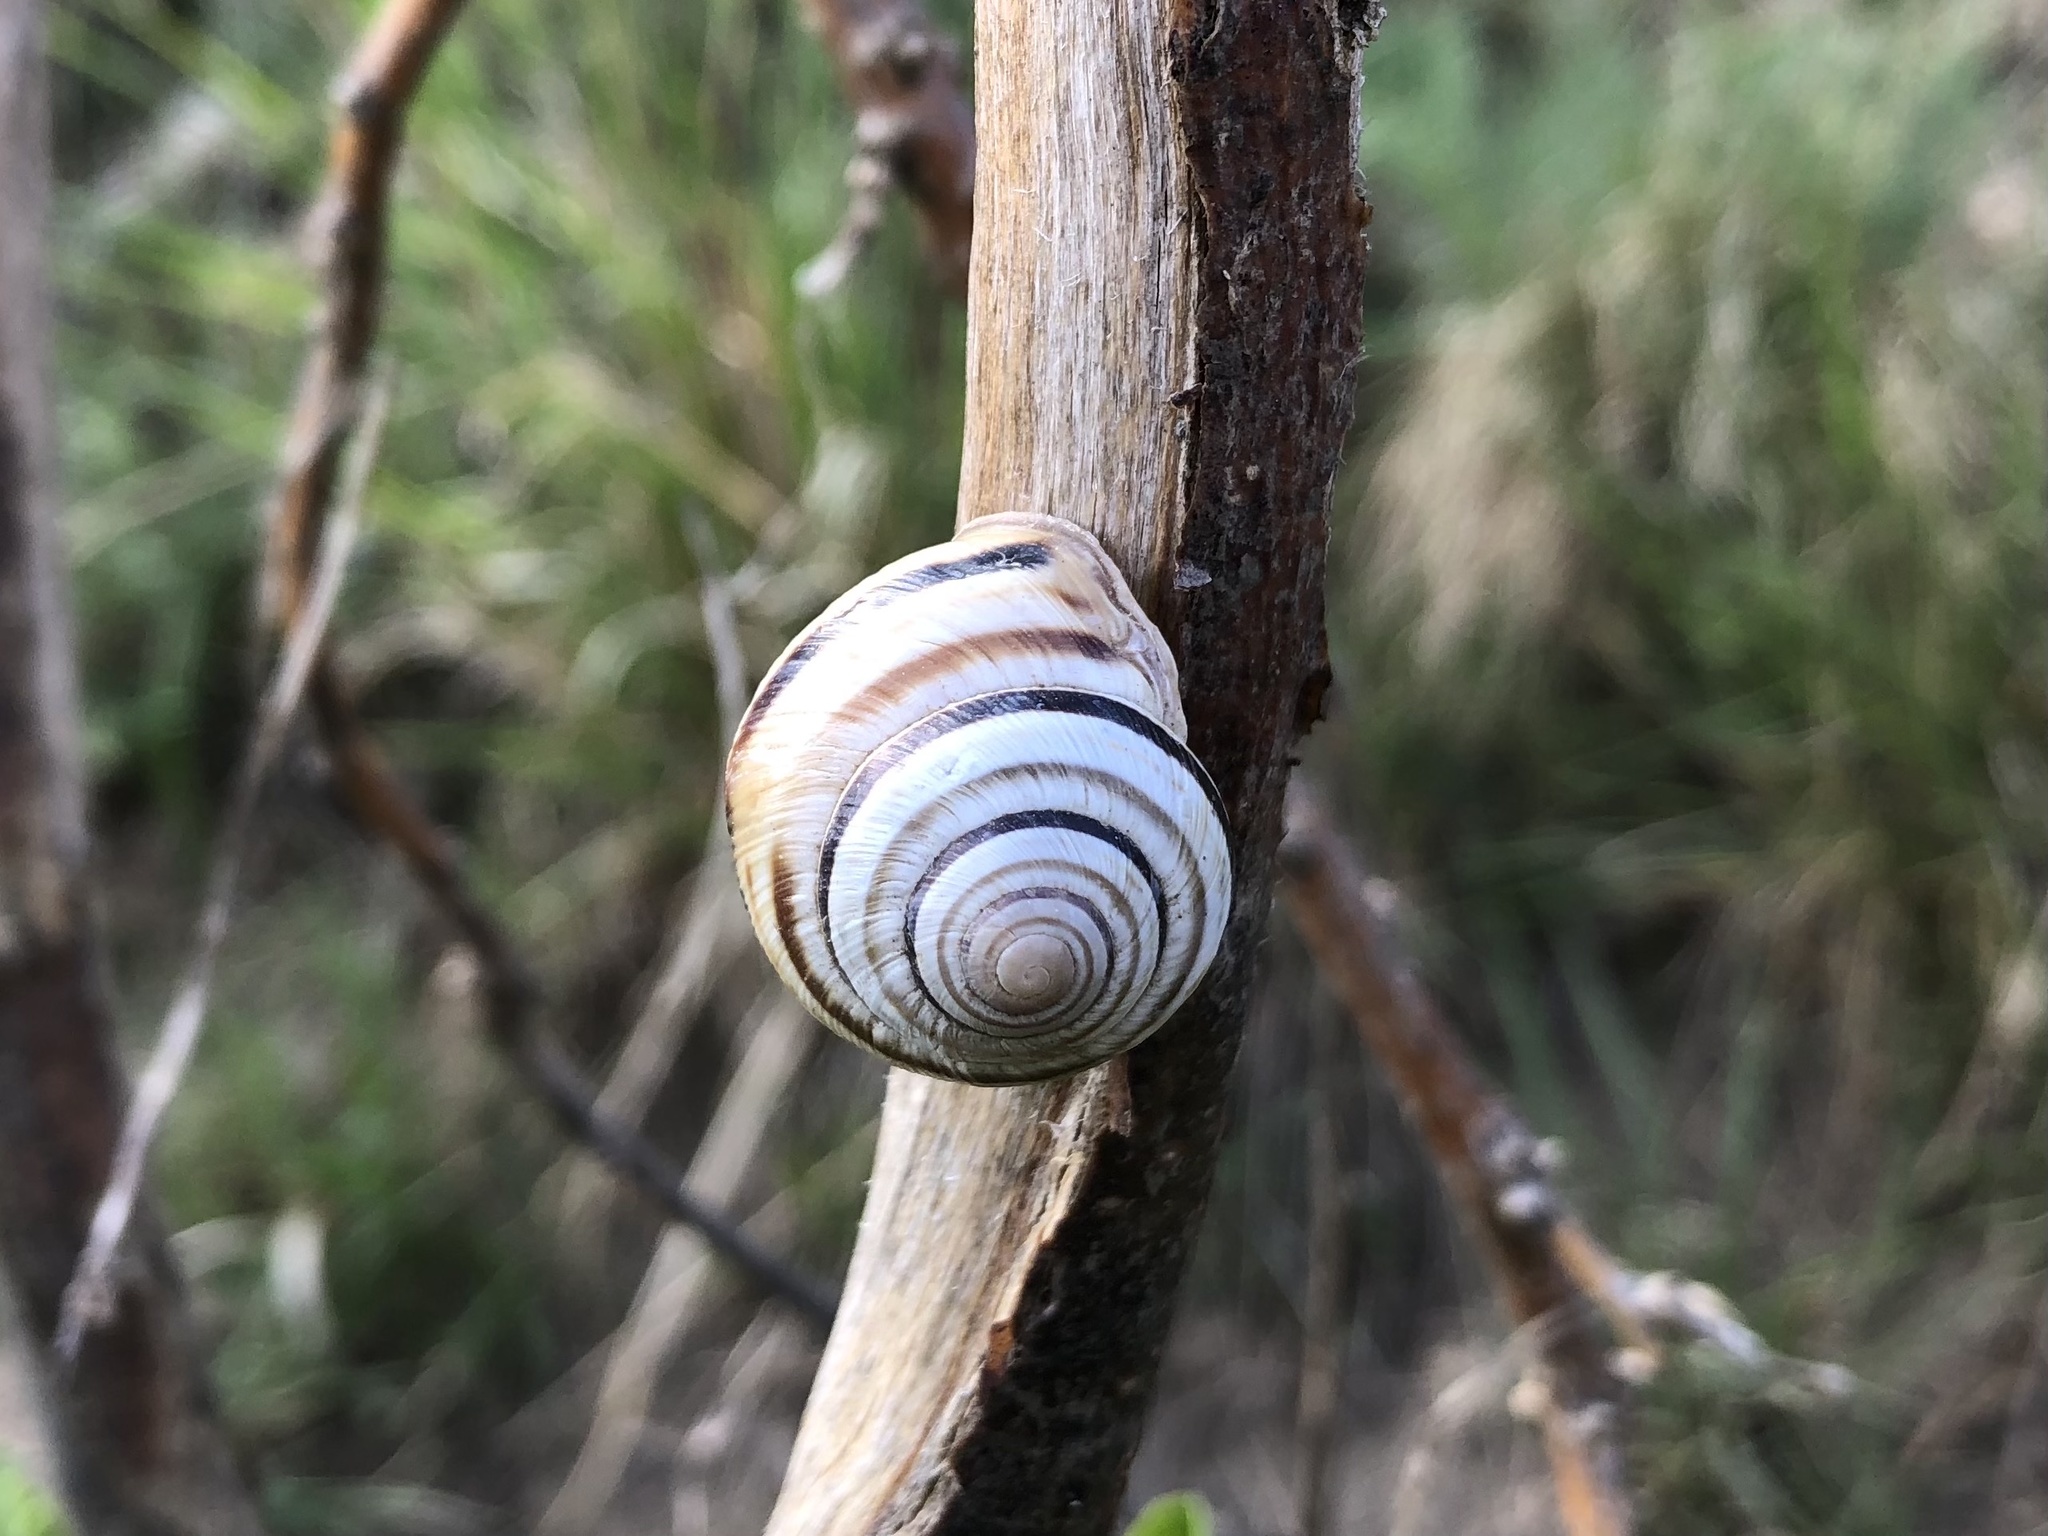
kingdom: Animalia
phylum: Mollusca
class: Gastropoda
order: Stylommatophora
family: Helicidae
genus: Caucasotachea
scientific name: Caucasotachea vindobonensis
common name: European helicid land snail
